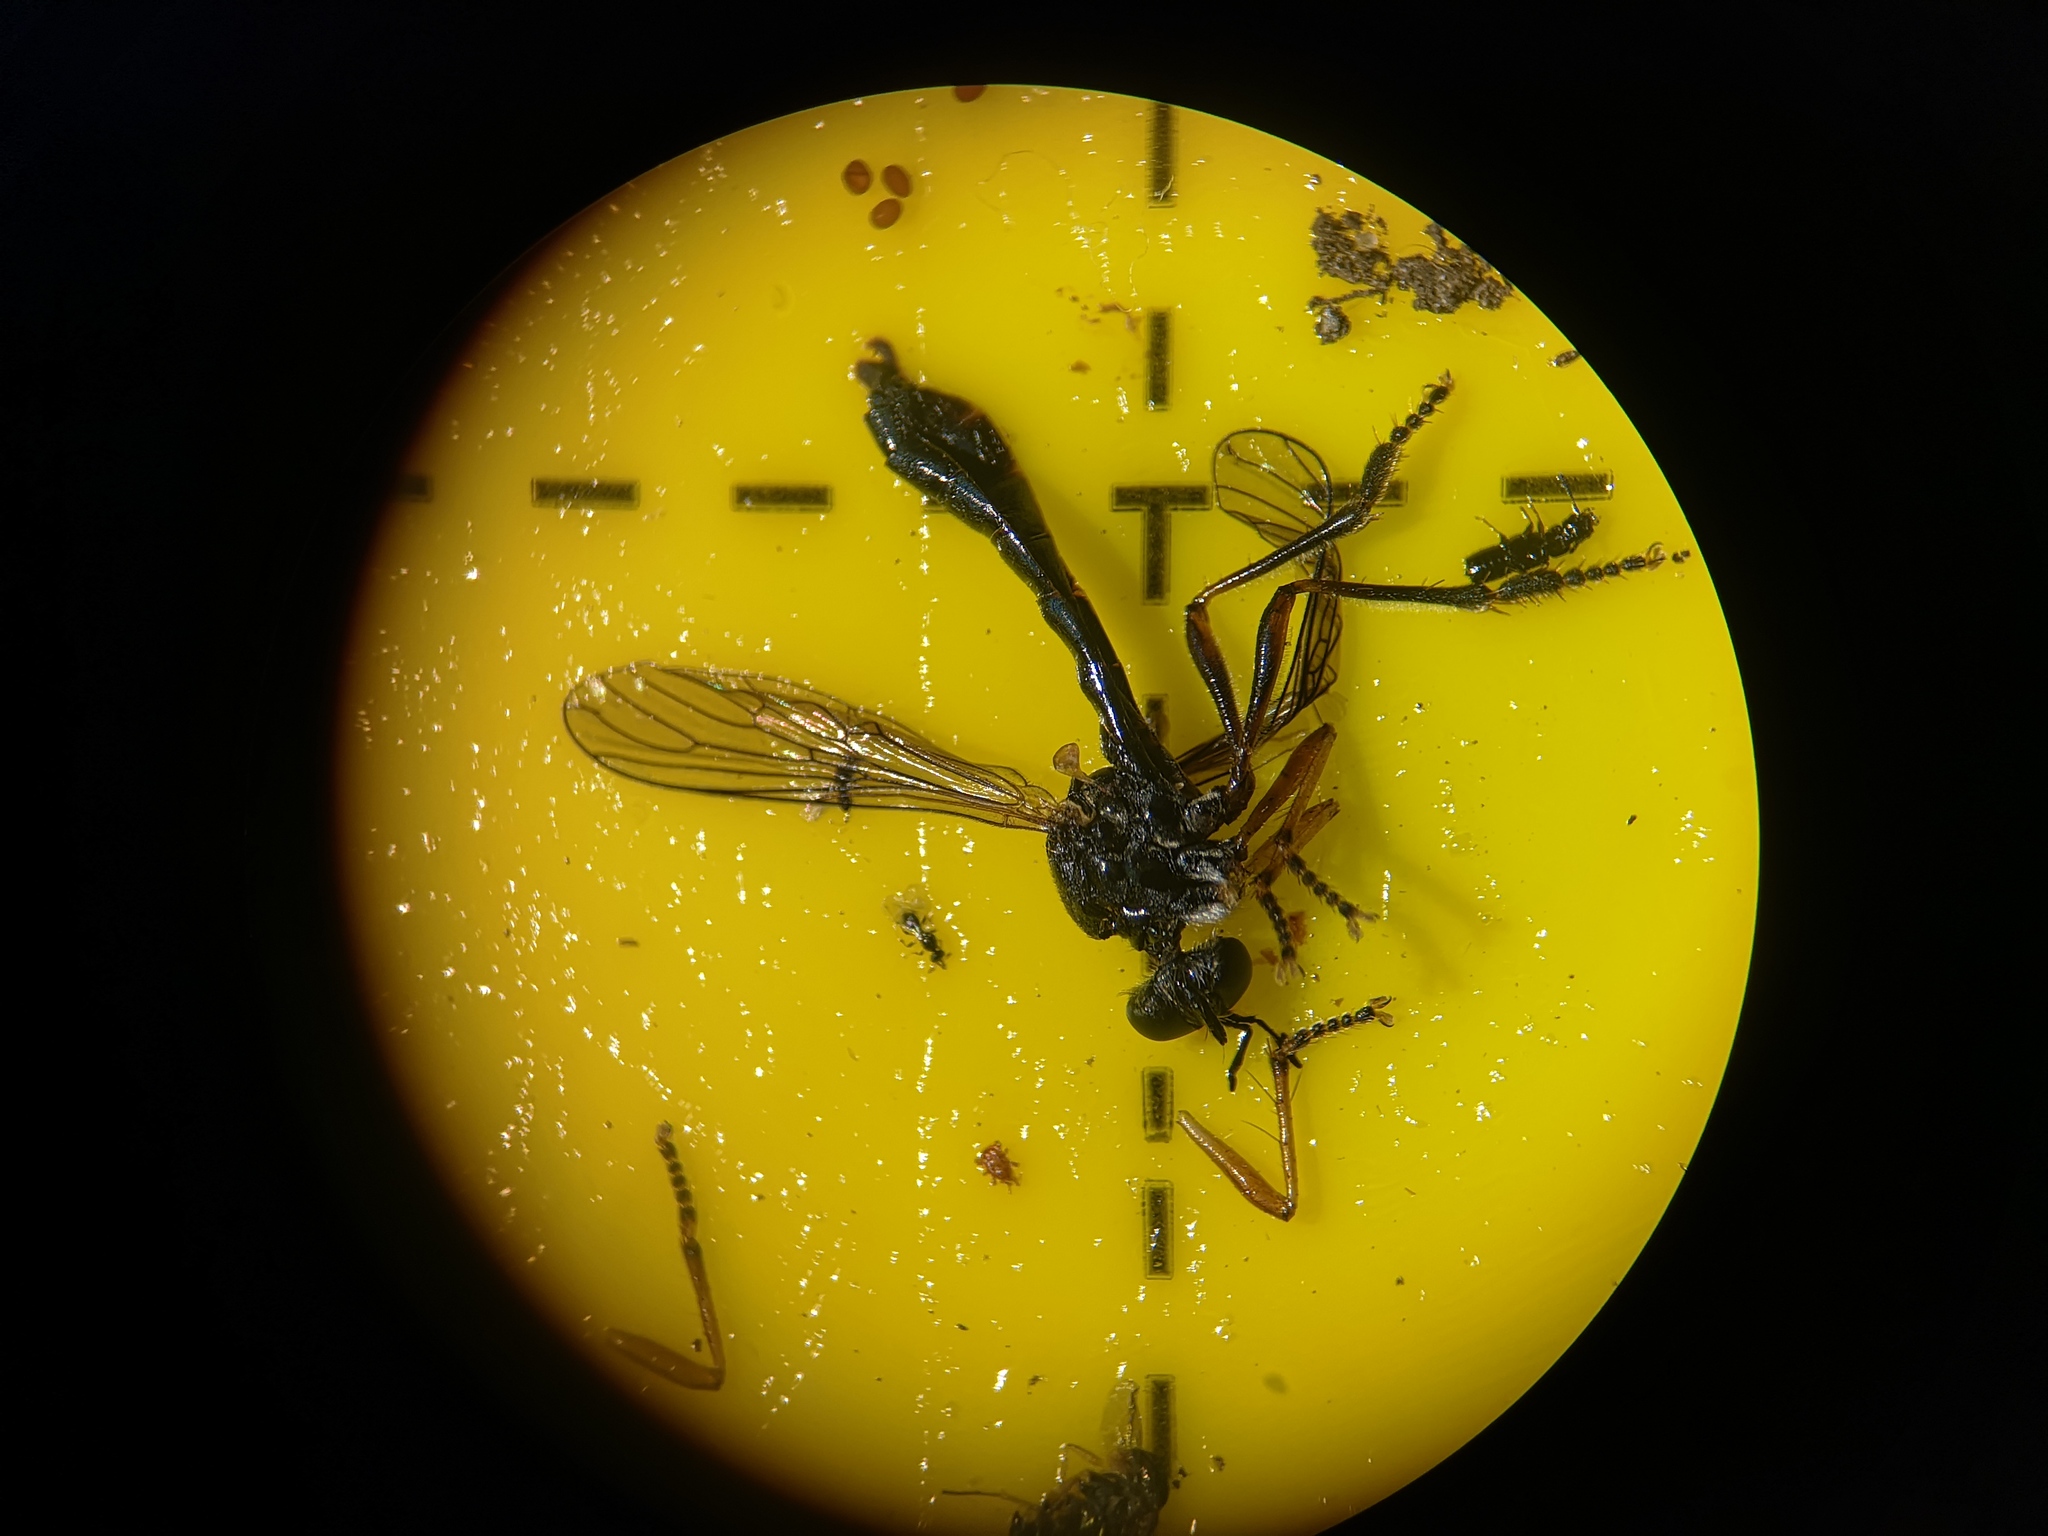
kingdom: Animalia
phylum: Arthropoda
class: Insecta
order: Diptera
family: Asilidae
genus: Dioctria
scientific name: Dioctria hyalipennis
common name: Stripe-legged robberfly
